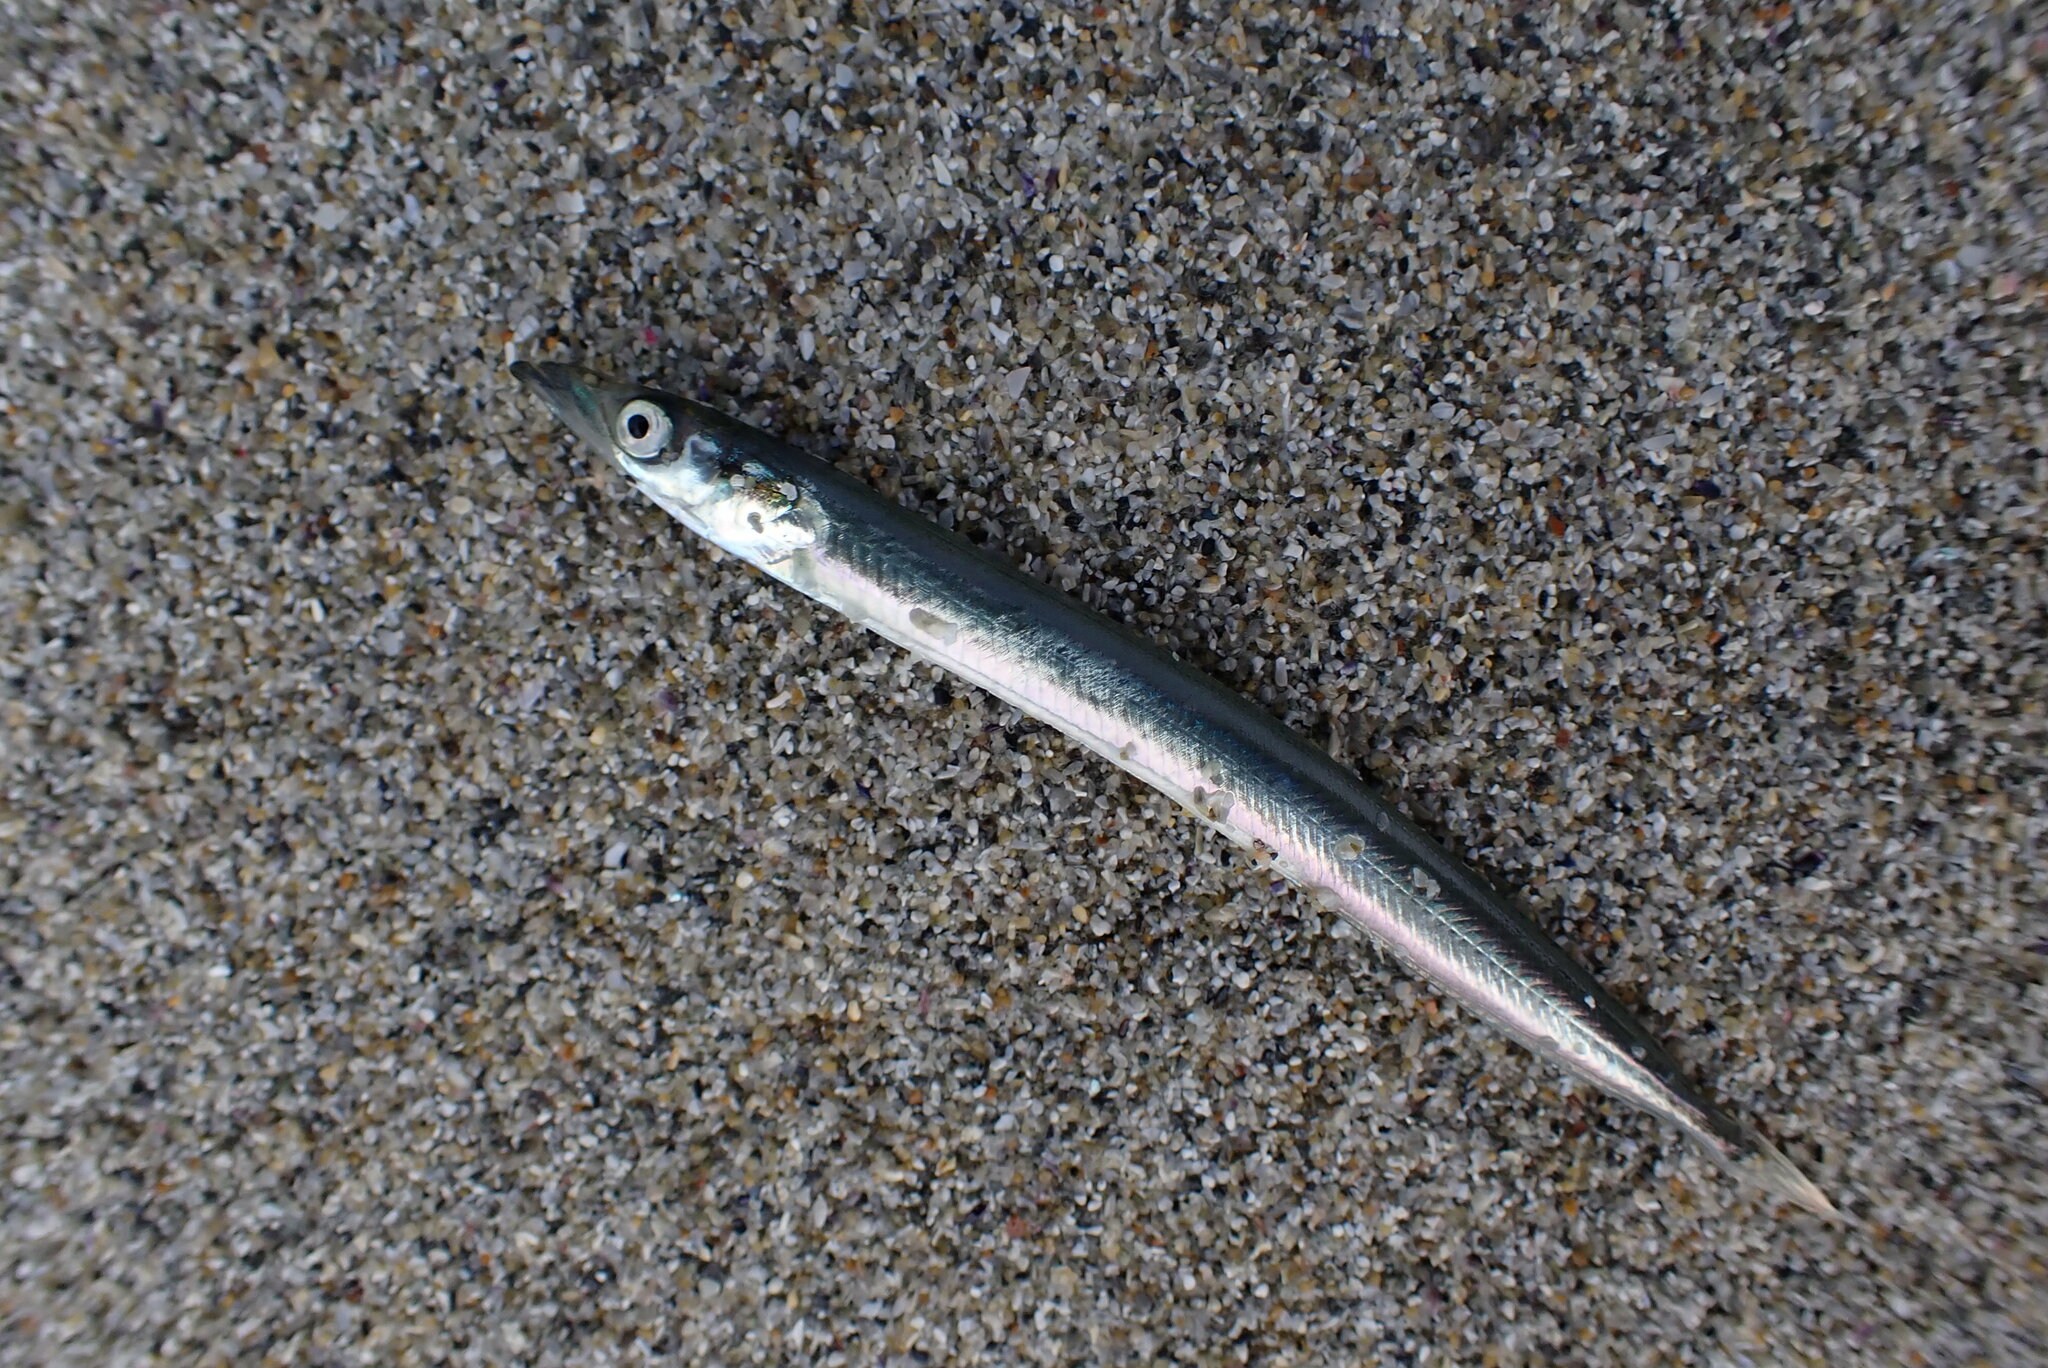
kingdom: Animalia
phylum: Chordata
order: Perciformes
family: Ammodytidae
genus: Ammodytes
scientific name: Ammodytes personatus
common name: Japanese sand lance
